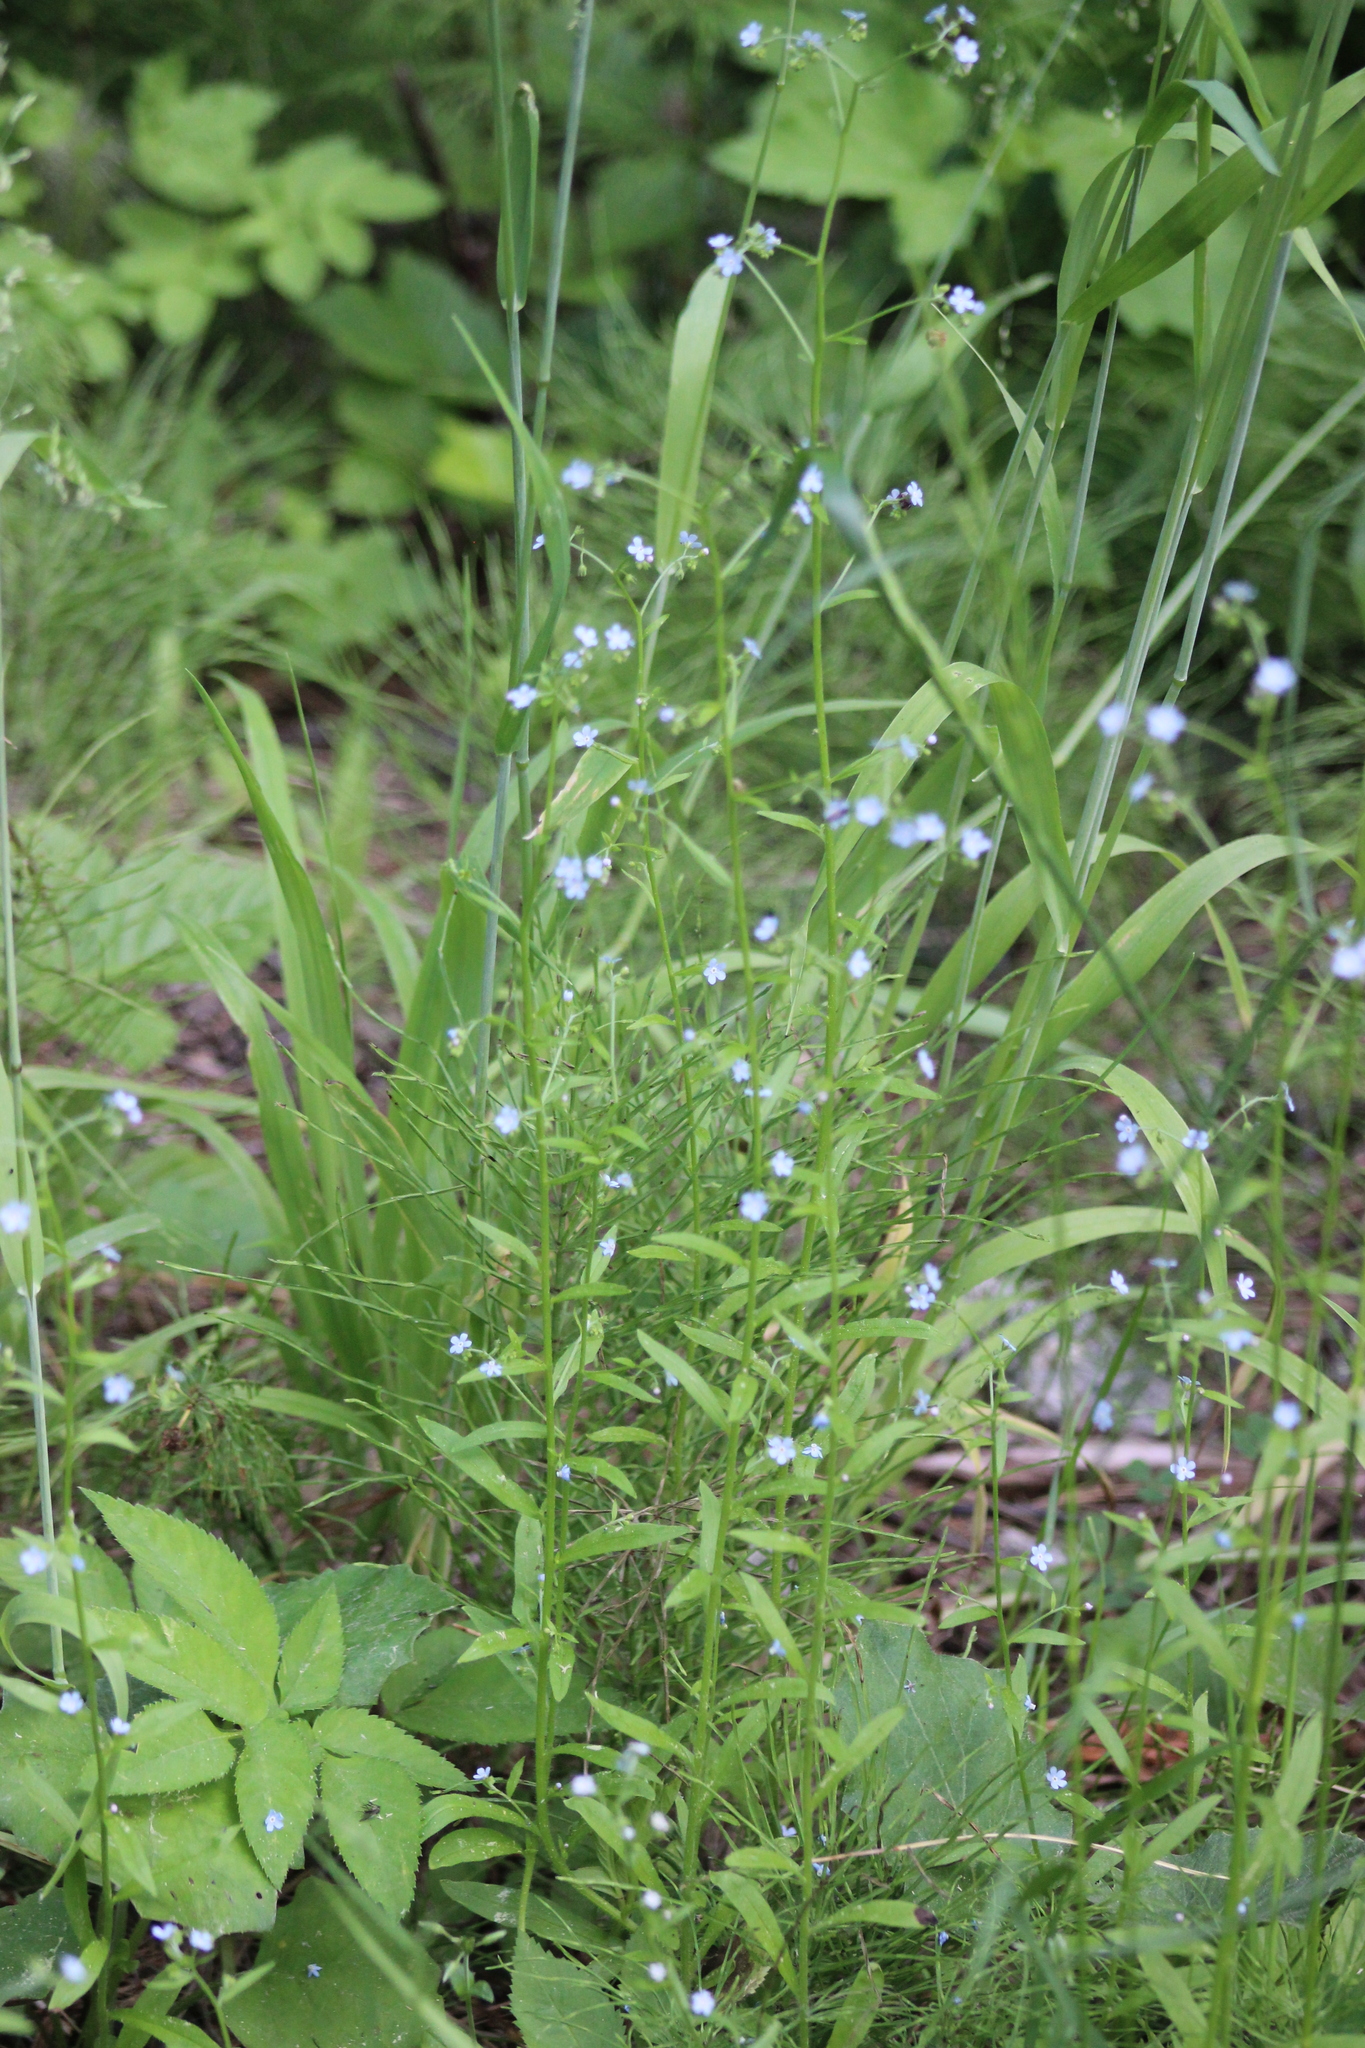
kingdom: Plantae
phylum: Tracheophyta
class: Magnoliopsida
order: Boraginales
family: Boraginaceae
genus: Hackelia
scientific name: Hackelia deflexa
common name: Nodding stickseed
